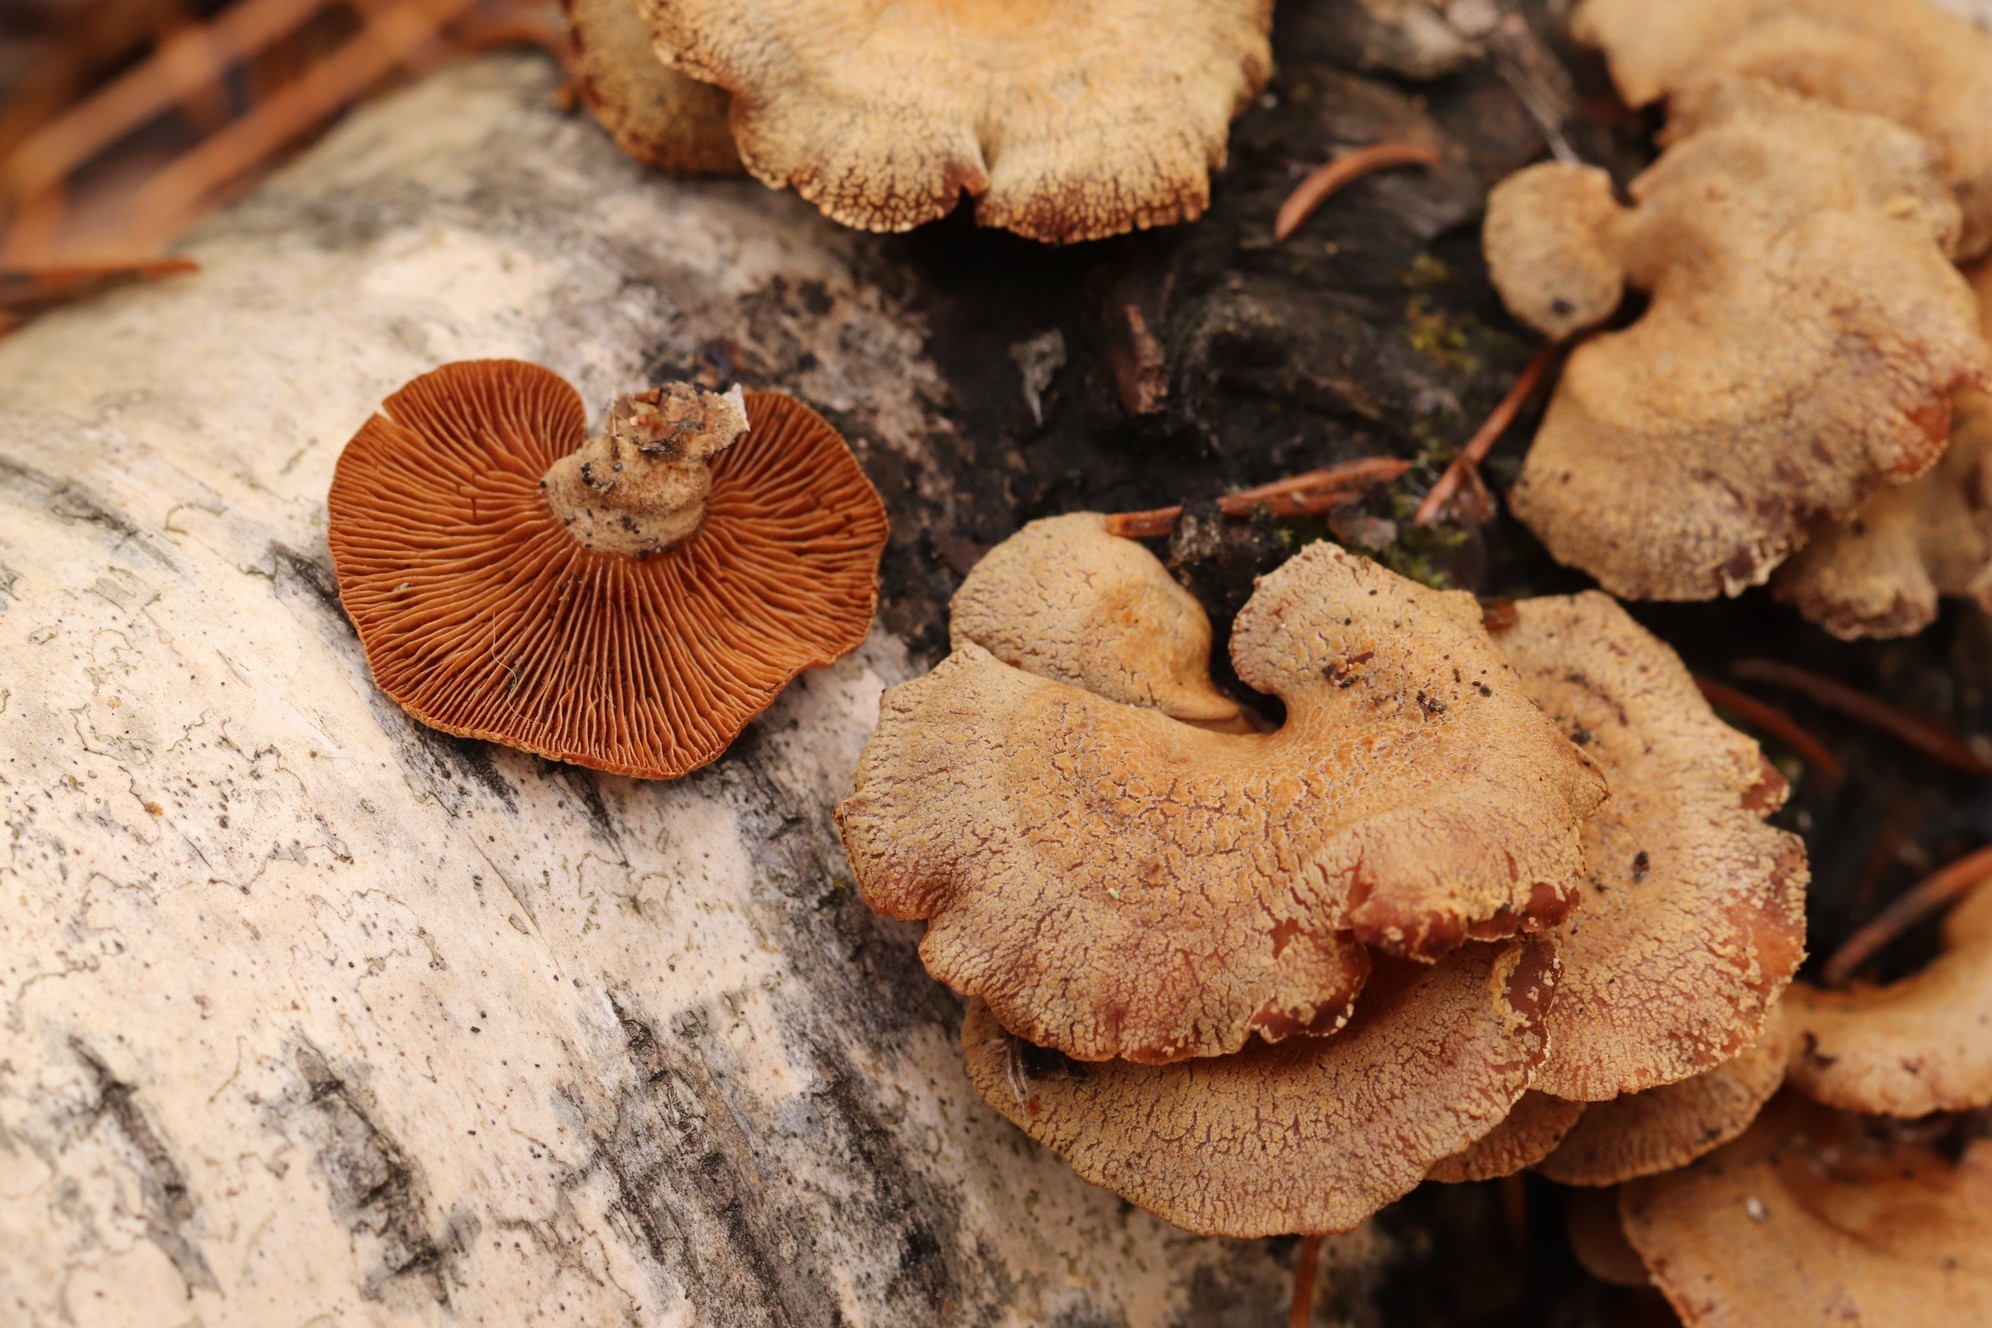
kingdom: Fungi
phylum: Basidiomycota
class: Agaricomycetes
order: Agaricales
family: Mycenaceae
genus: Panellus
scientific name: Panellus stipticus
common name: Bitter oysterling
